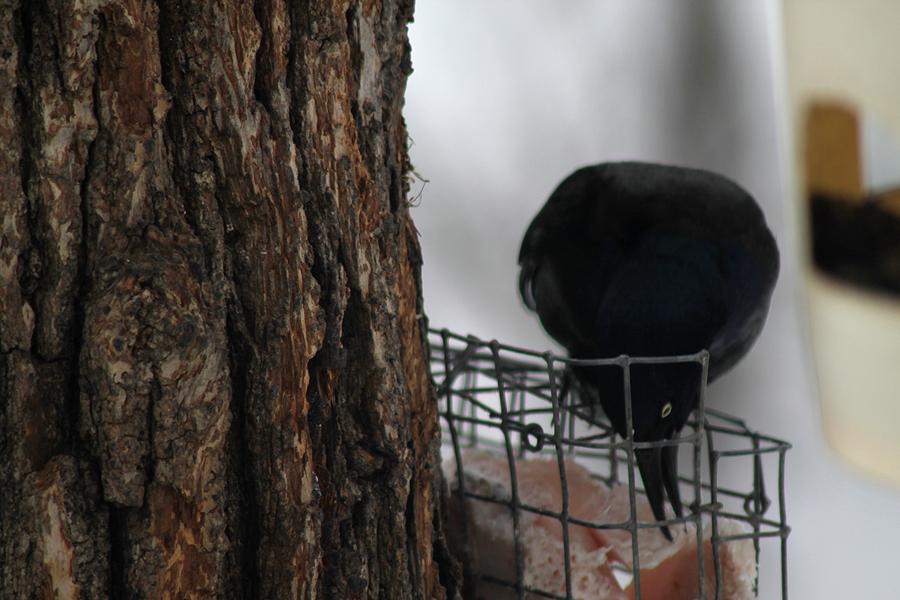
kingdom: Animalia
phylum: Chordata
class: Aves
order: Passeriformes
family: Icteridae
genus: Quiscalus
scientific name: Quiscalus quiscula
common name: Common grackle
